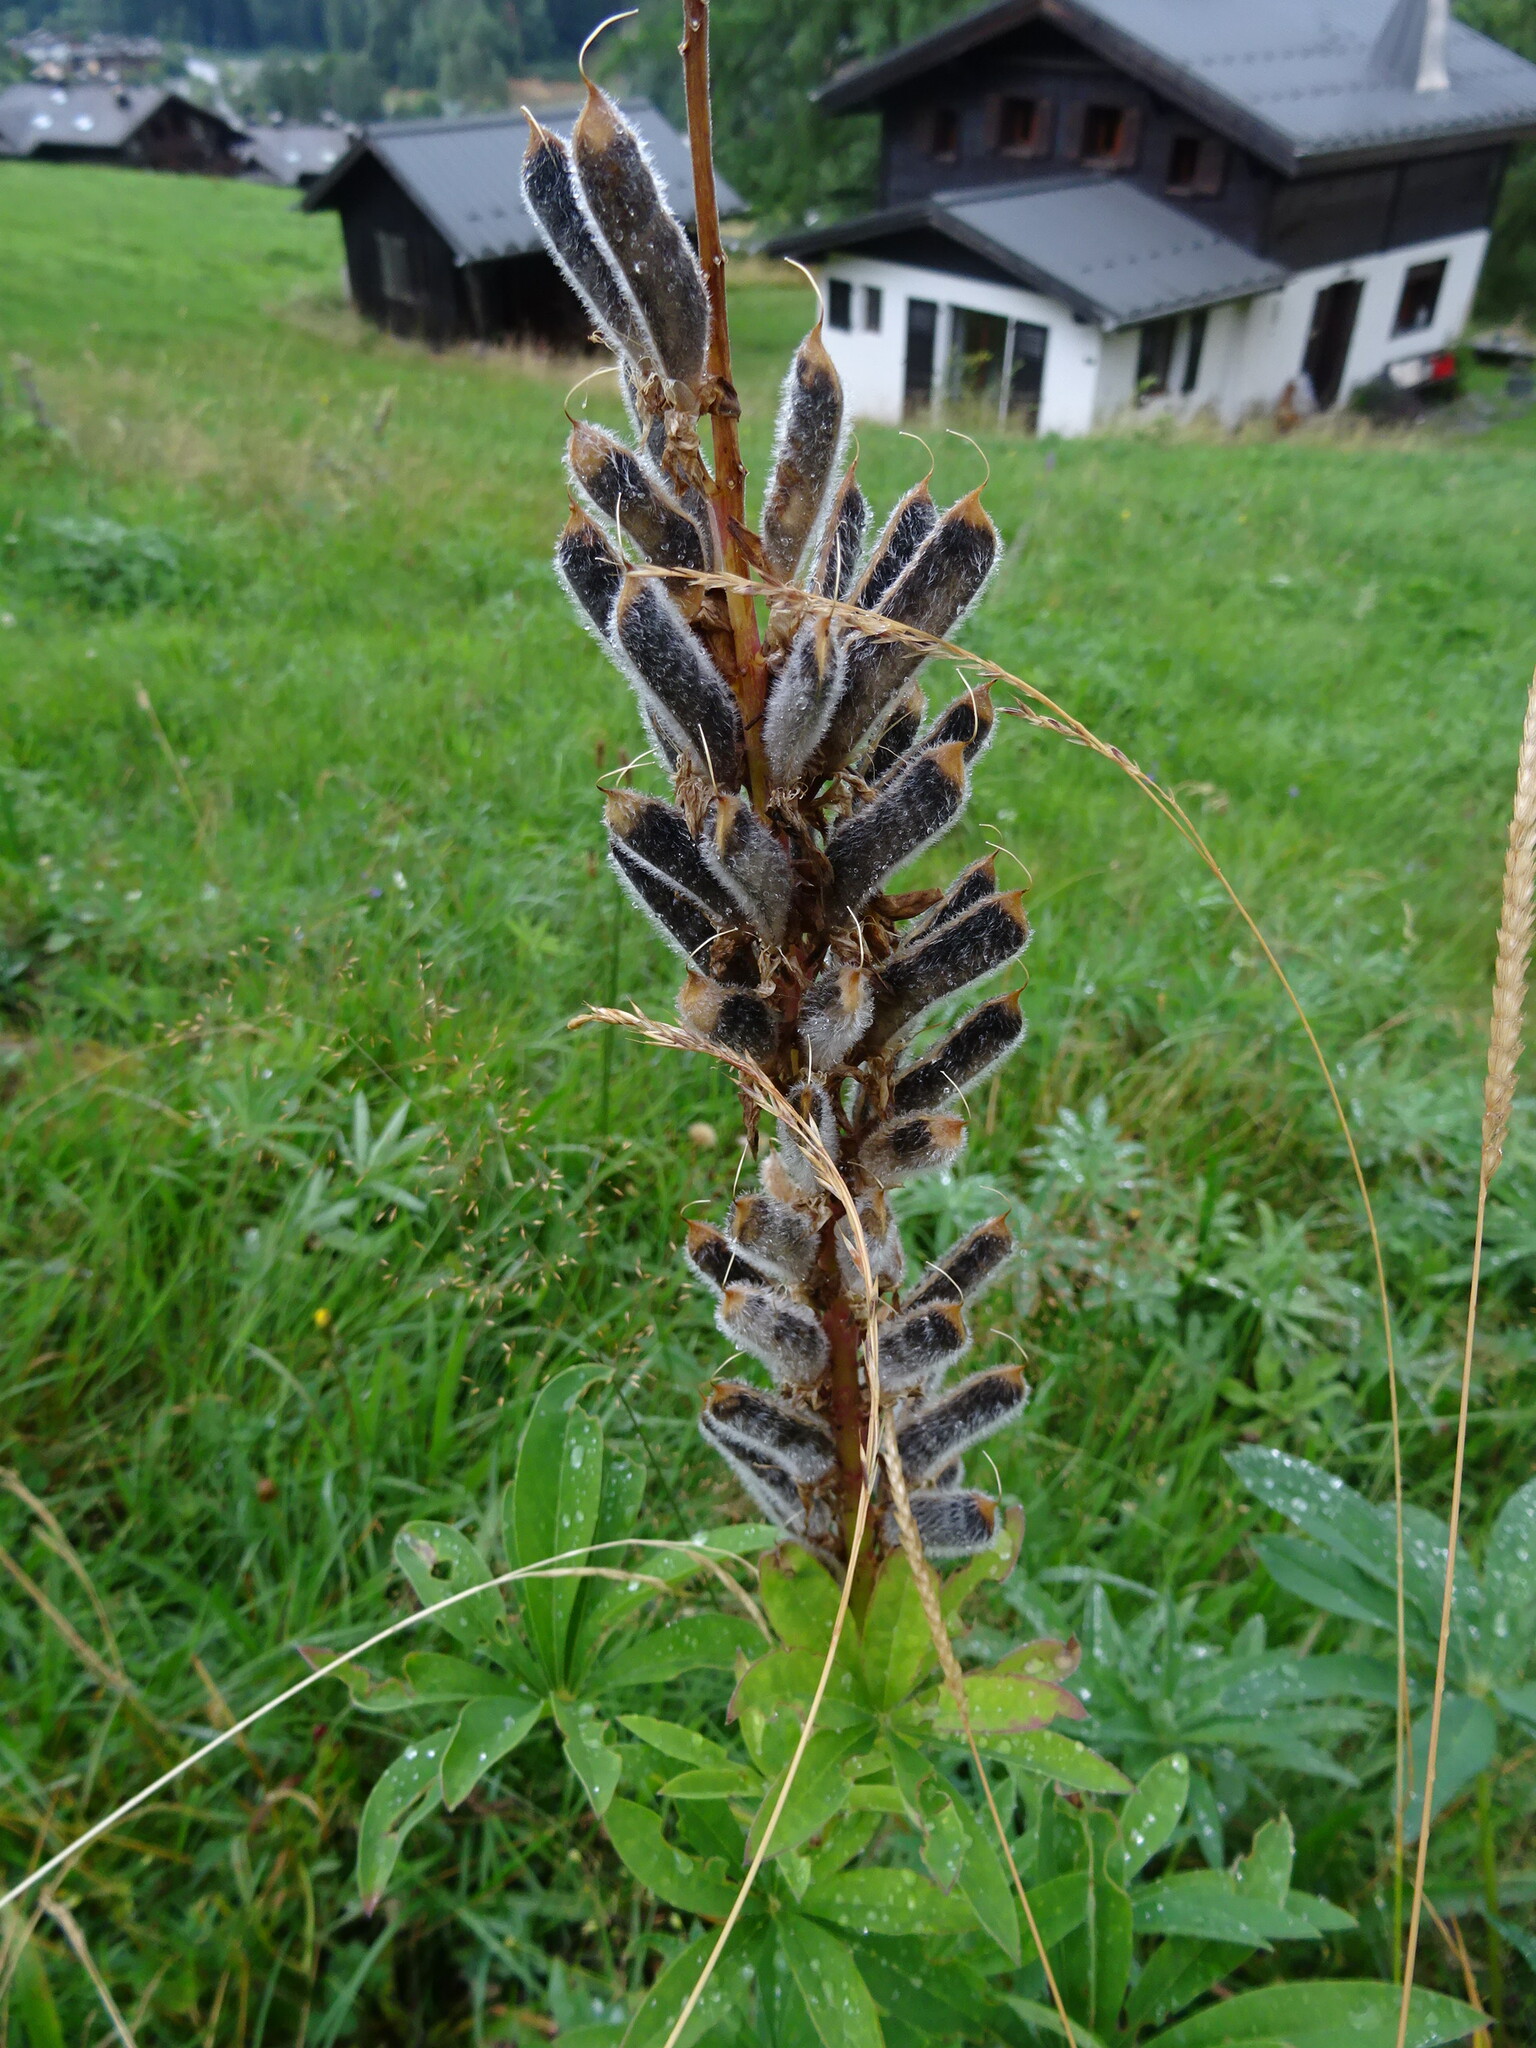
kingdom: Plantae
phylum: Tracheophyta
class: Magnoliopsida
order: Fabales
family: Fabaceae
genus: Lupinus
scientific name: Lupinus polyphyllus
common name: Garden lupin
